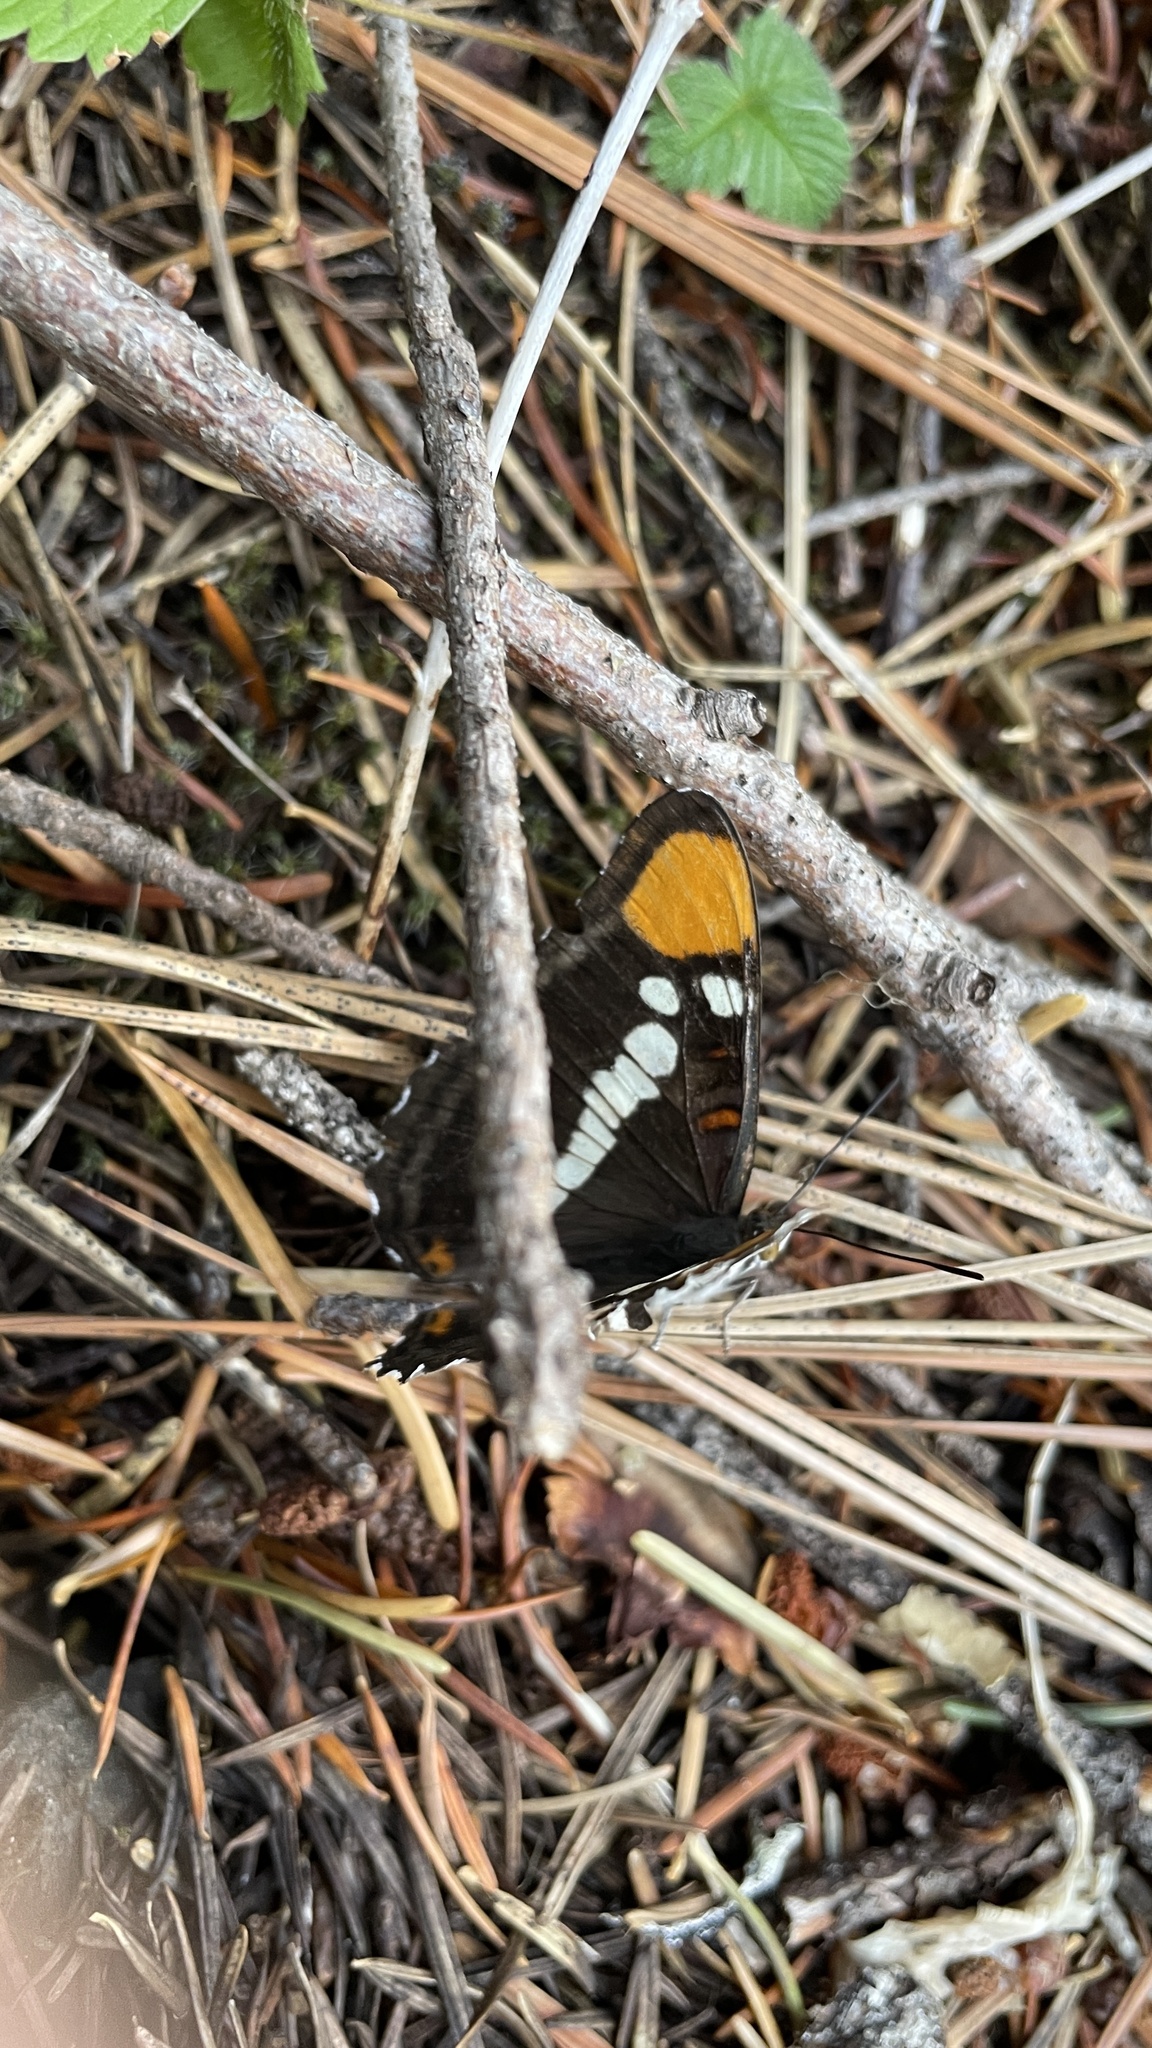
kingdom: Animalia
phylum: Arthropoda
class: Insecta
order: Lepidoptera
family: Nymphalidae
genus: Limenitis
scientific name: Limenitis bredowii
